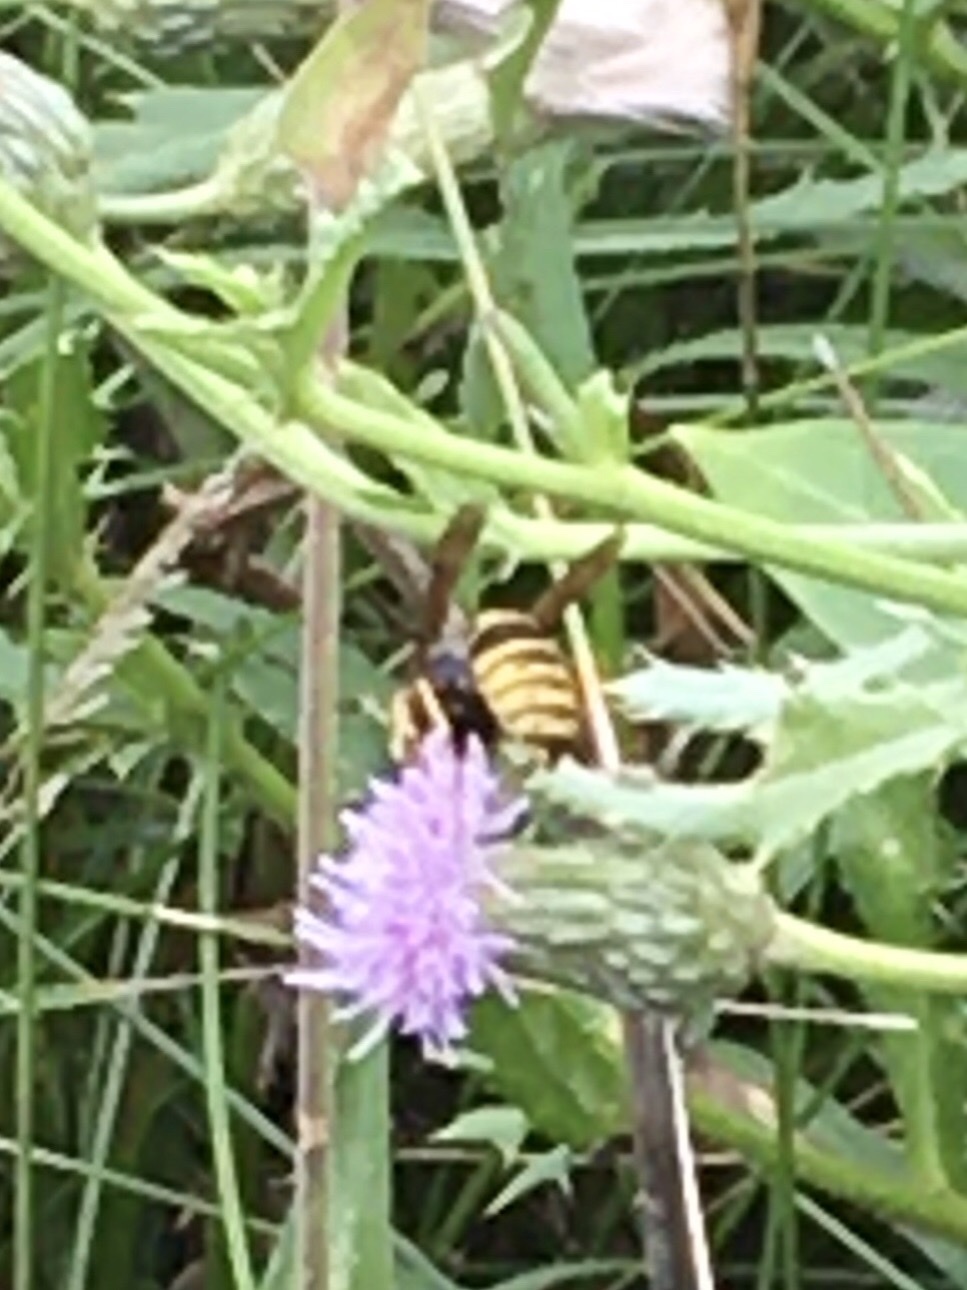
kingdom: Animalia
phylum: Arthropoda
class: Insecta
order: Hymenoptera
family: Vespidae
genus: Vespula
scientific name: Vespula vidua
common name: Widow yellowjacket
